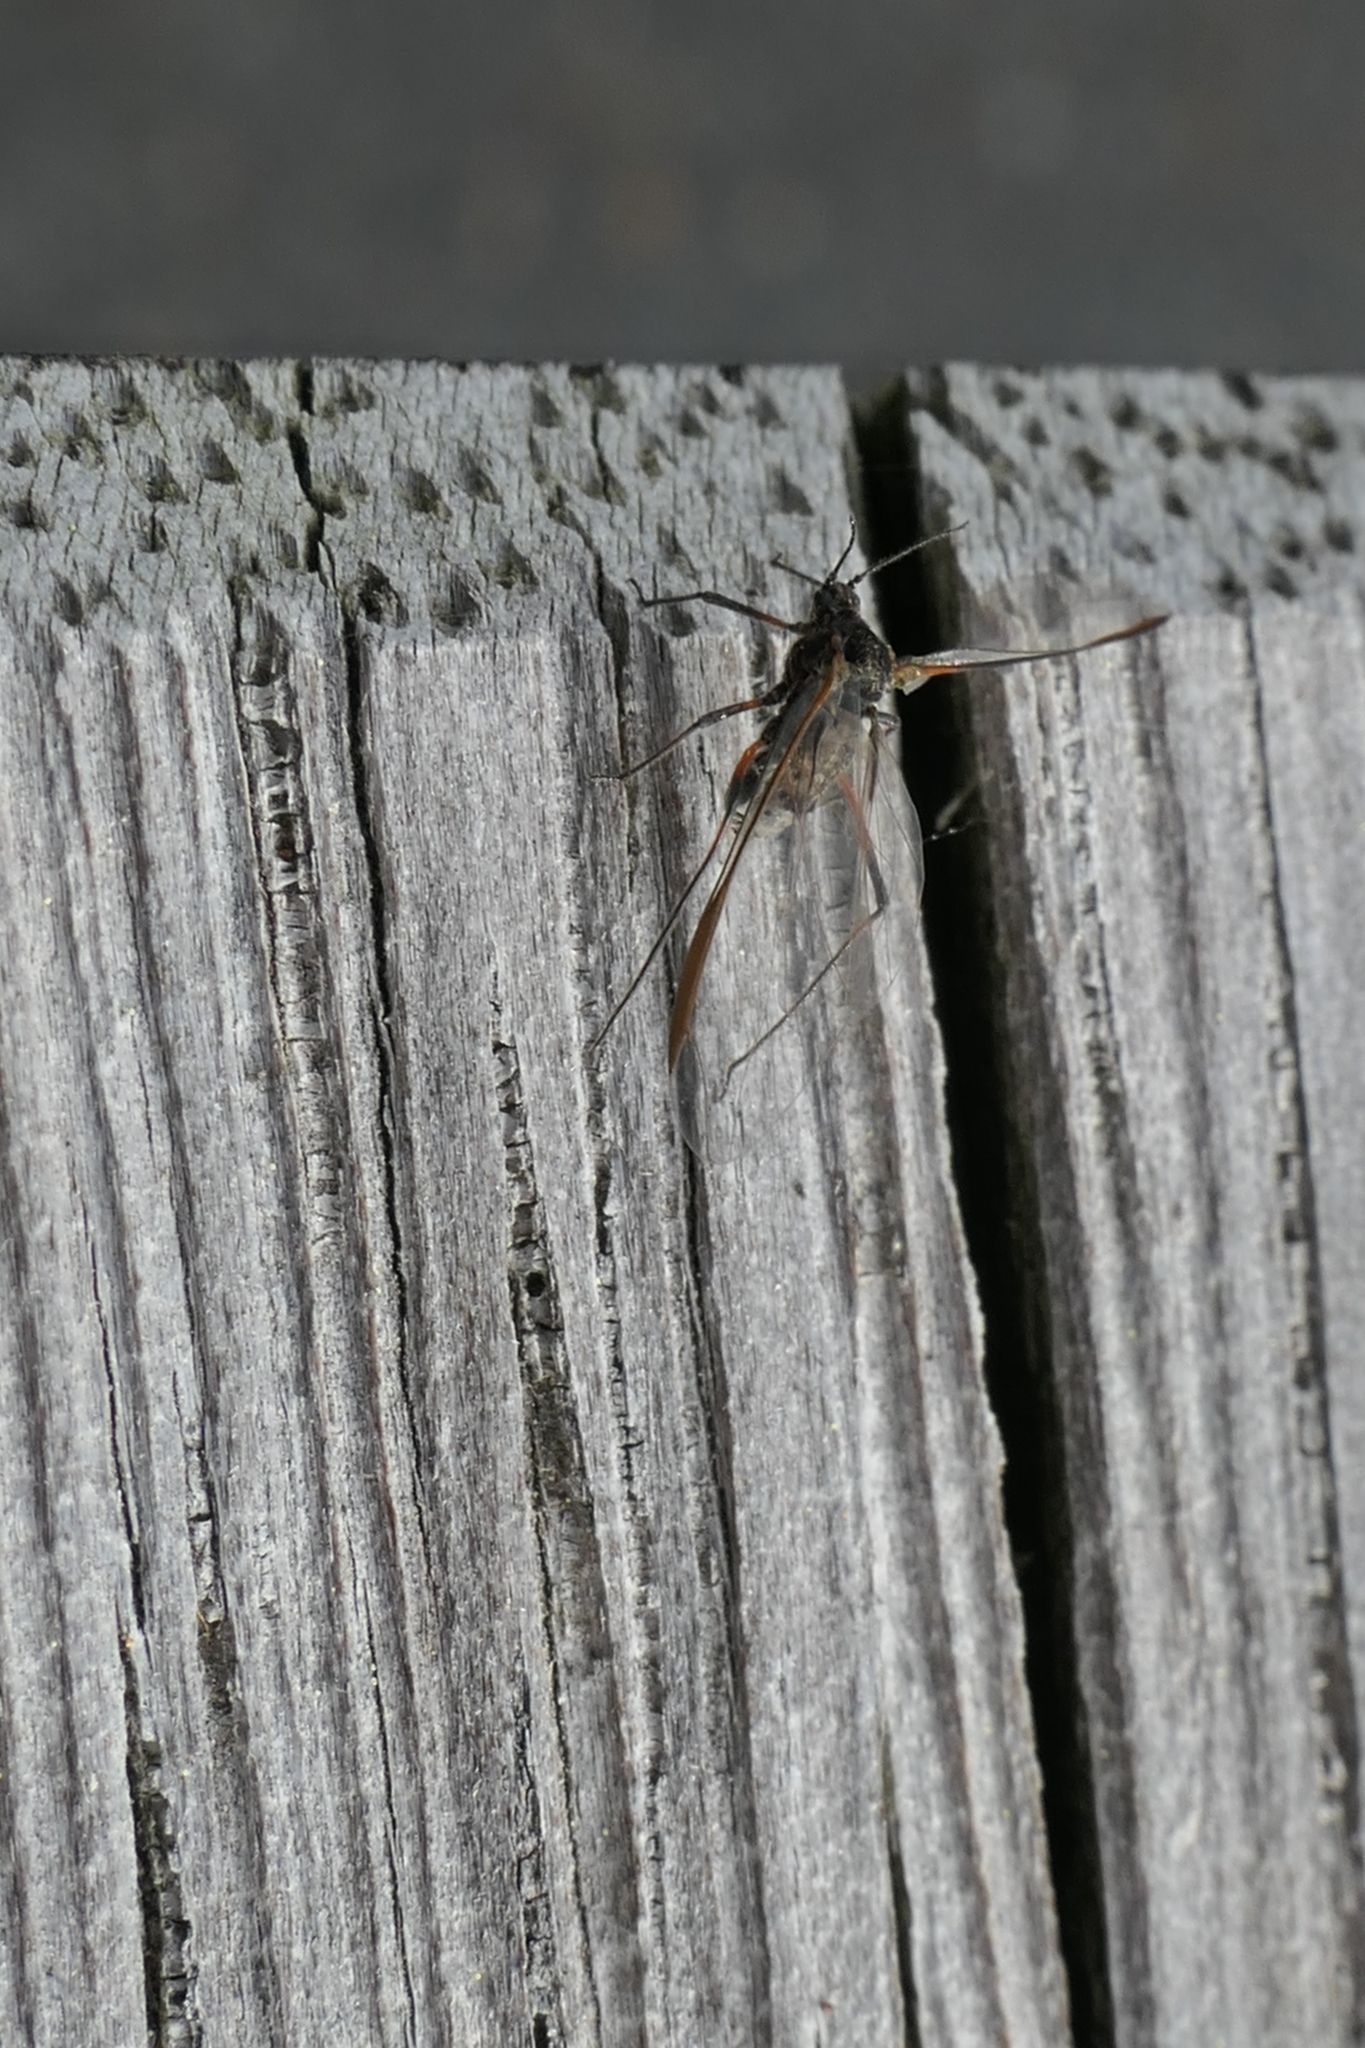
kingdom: Animalia
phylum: Arthropoda
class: Insecta
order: Hemiptera
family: Aphididae
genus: Tuberolachnus
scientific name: Tuberolachnus salignus
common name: Giant willow aphid
